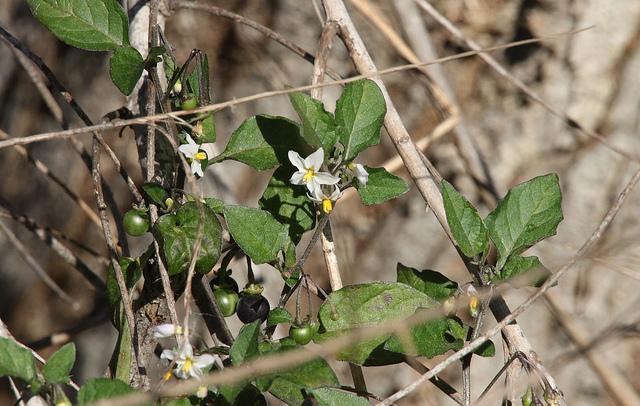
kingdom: Plantae
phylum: Tracheophyta
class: Magnoliopsida
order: Solanales
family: Solanaceae
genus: Solanum
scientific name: Solanum nigrum
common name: Black nightshade
